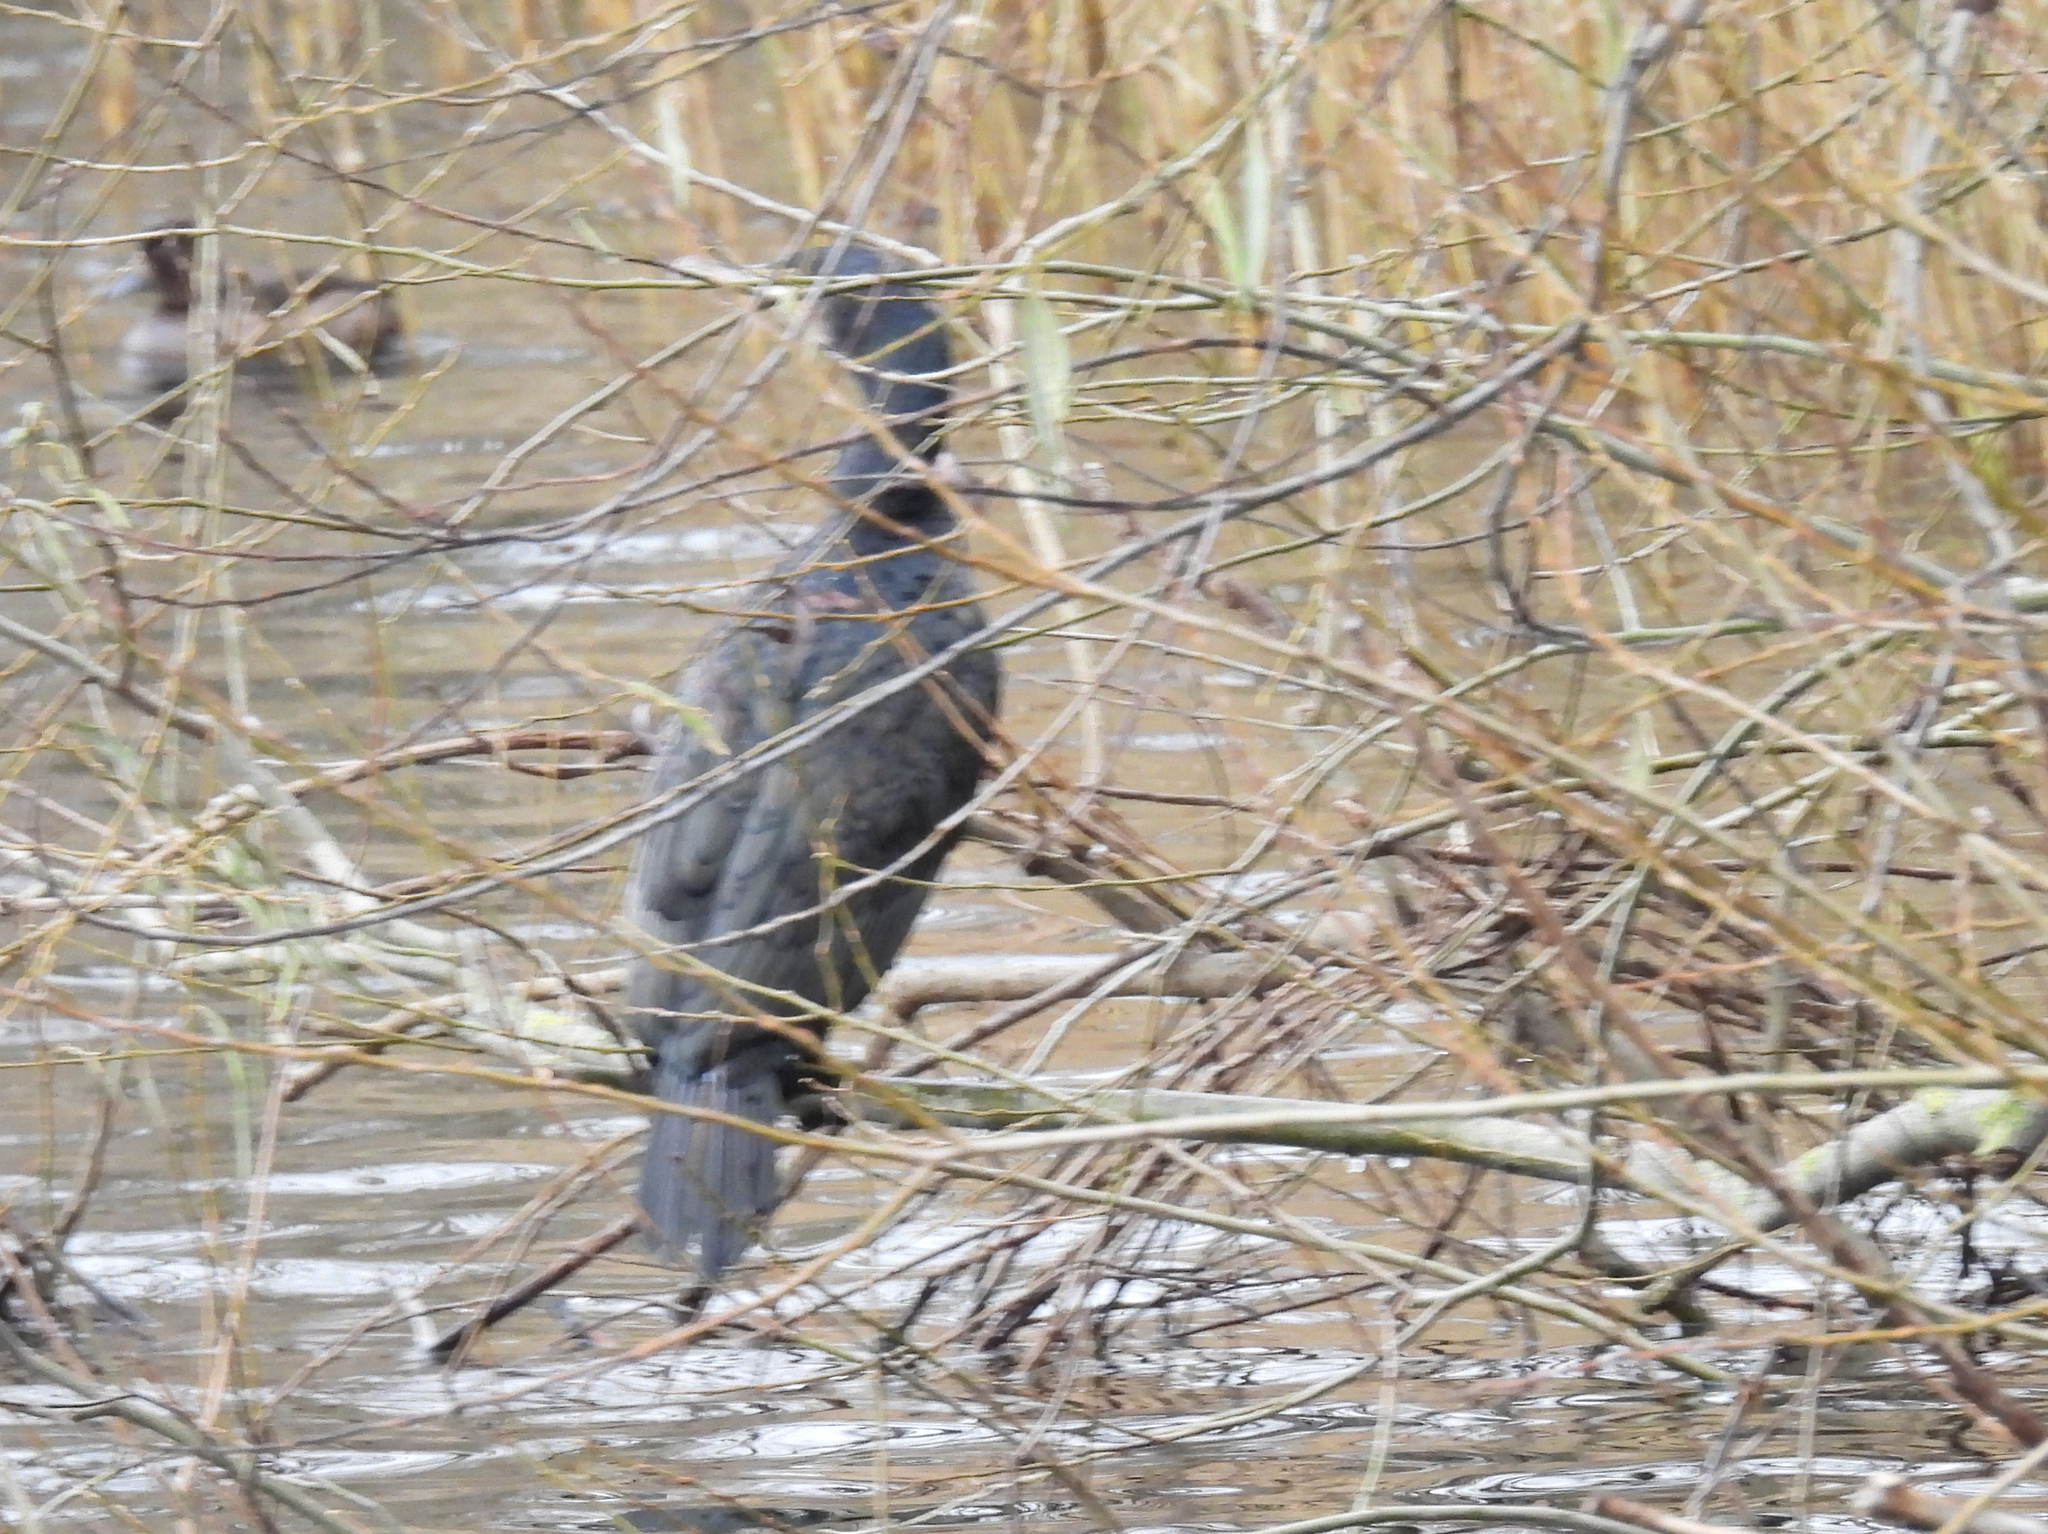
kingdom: Animalia
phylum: Chordata
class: Aves
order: Suliformes
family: Phalacrocoracidae
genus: Phalacrocorax
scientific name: Phalacrocorax carbo
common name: Great cormorant
